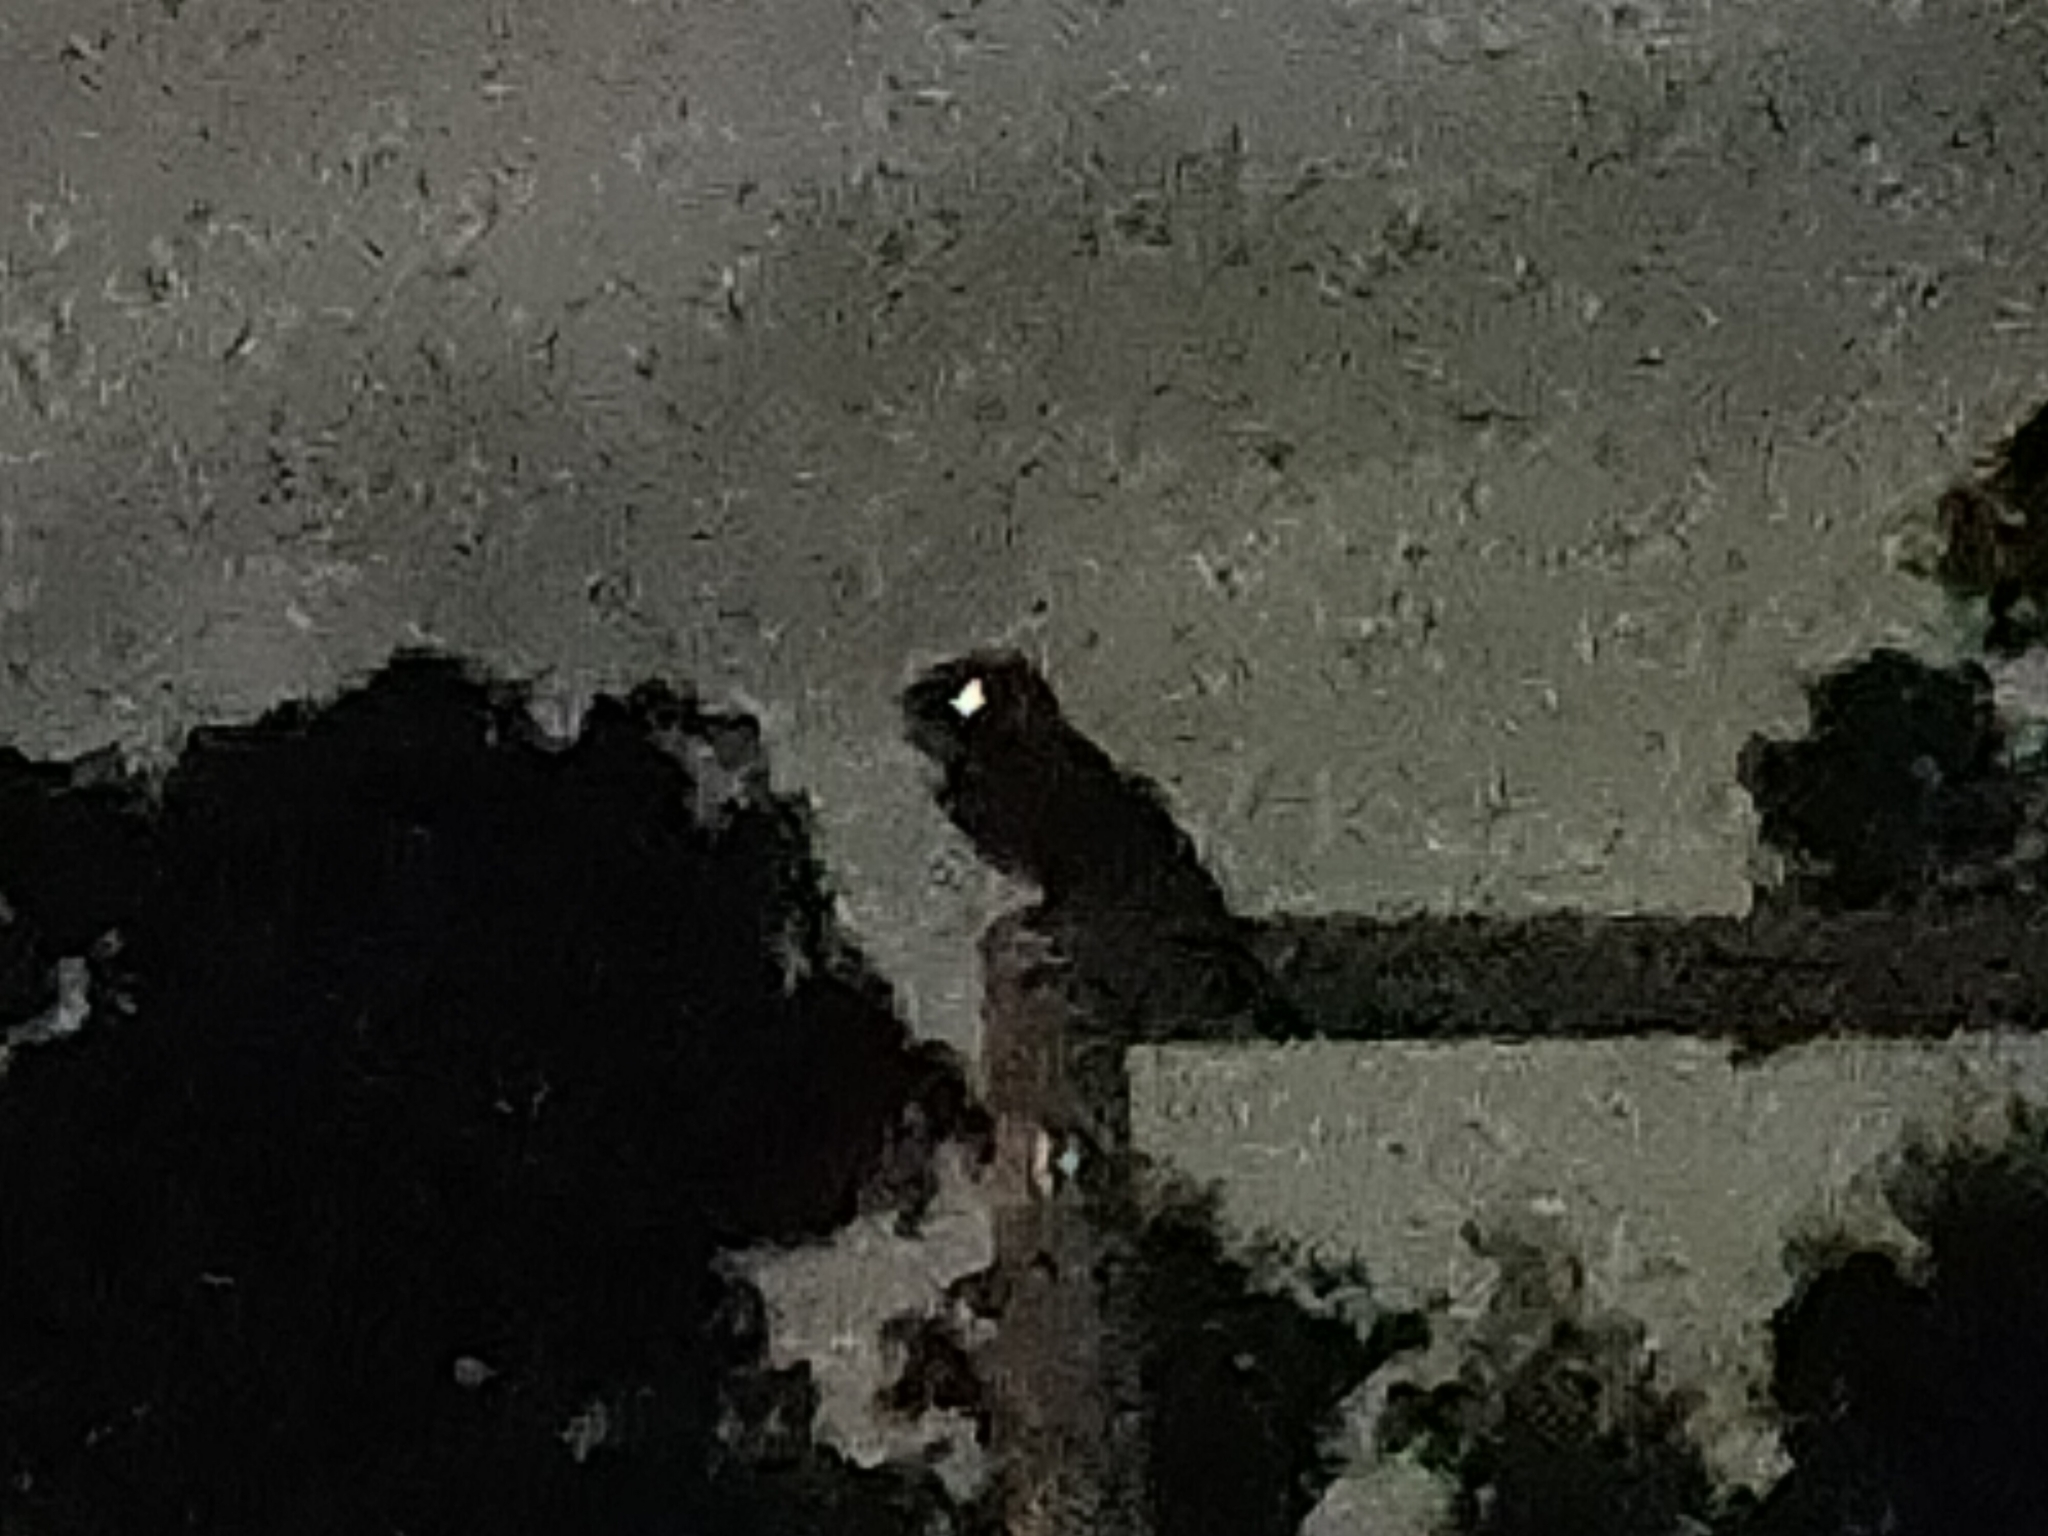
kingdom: Animalia
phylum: Chordata
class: Aves
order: Caprimulgiformes
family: Podargidae
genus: Podargus
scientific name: Podargus strigoides
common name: Tawny frogmouth
